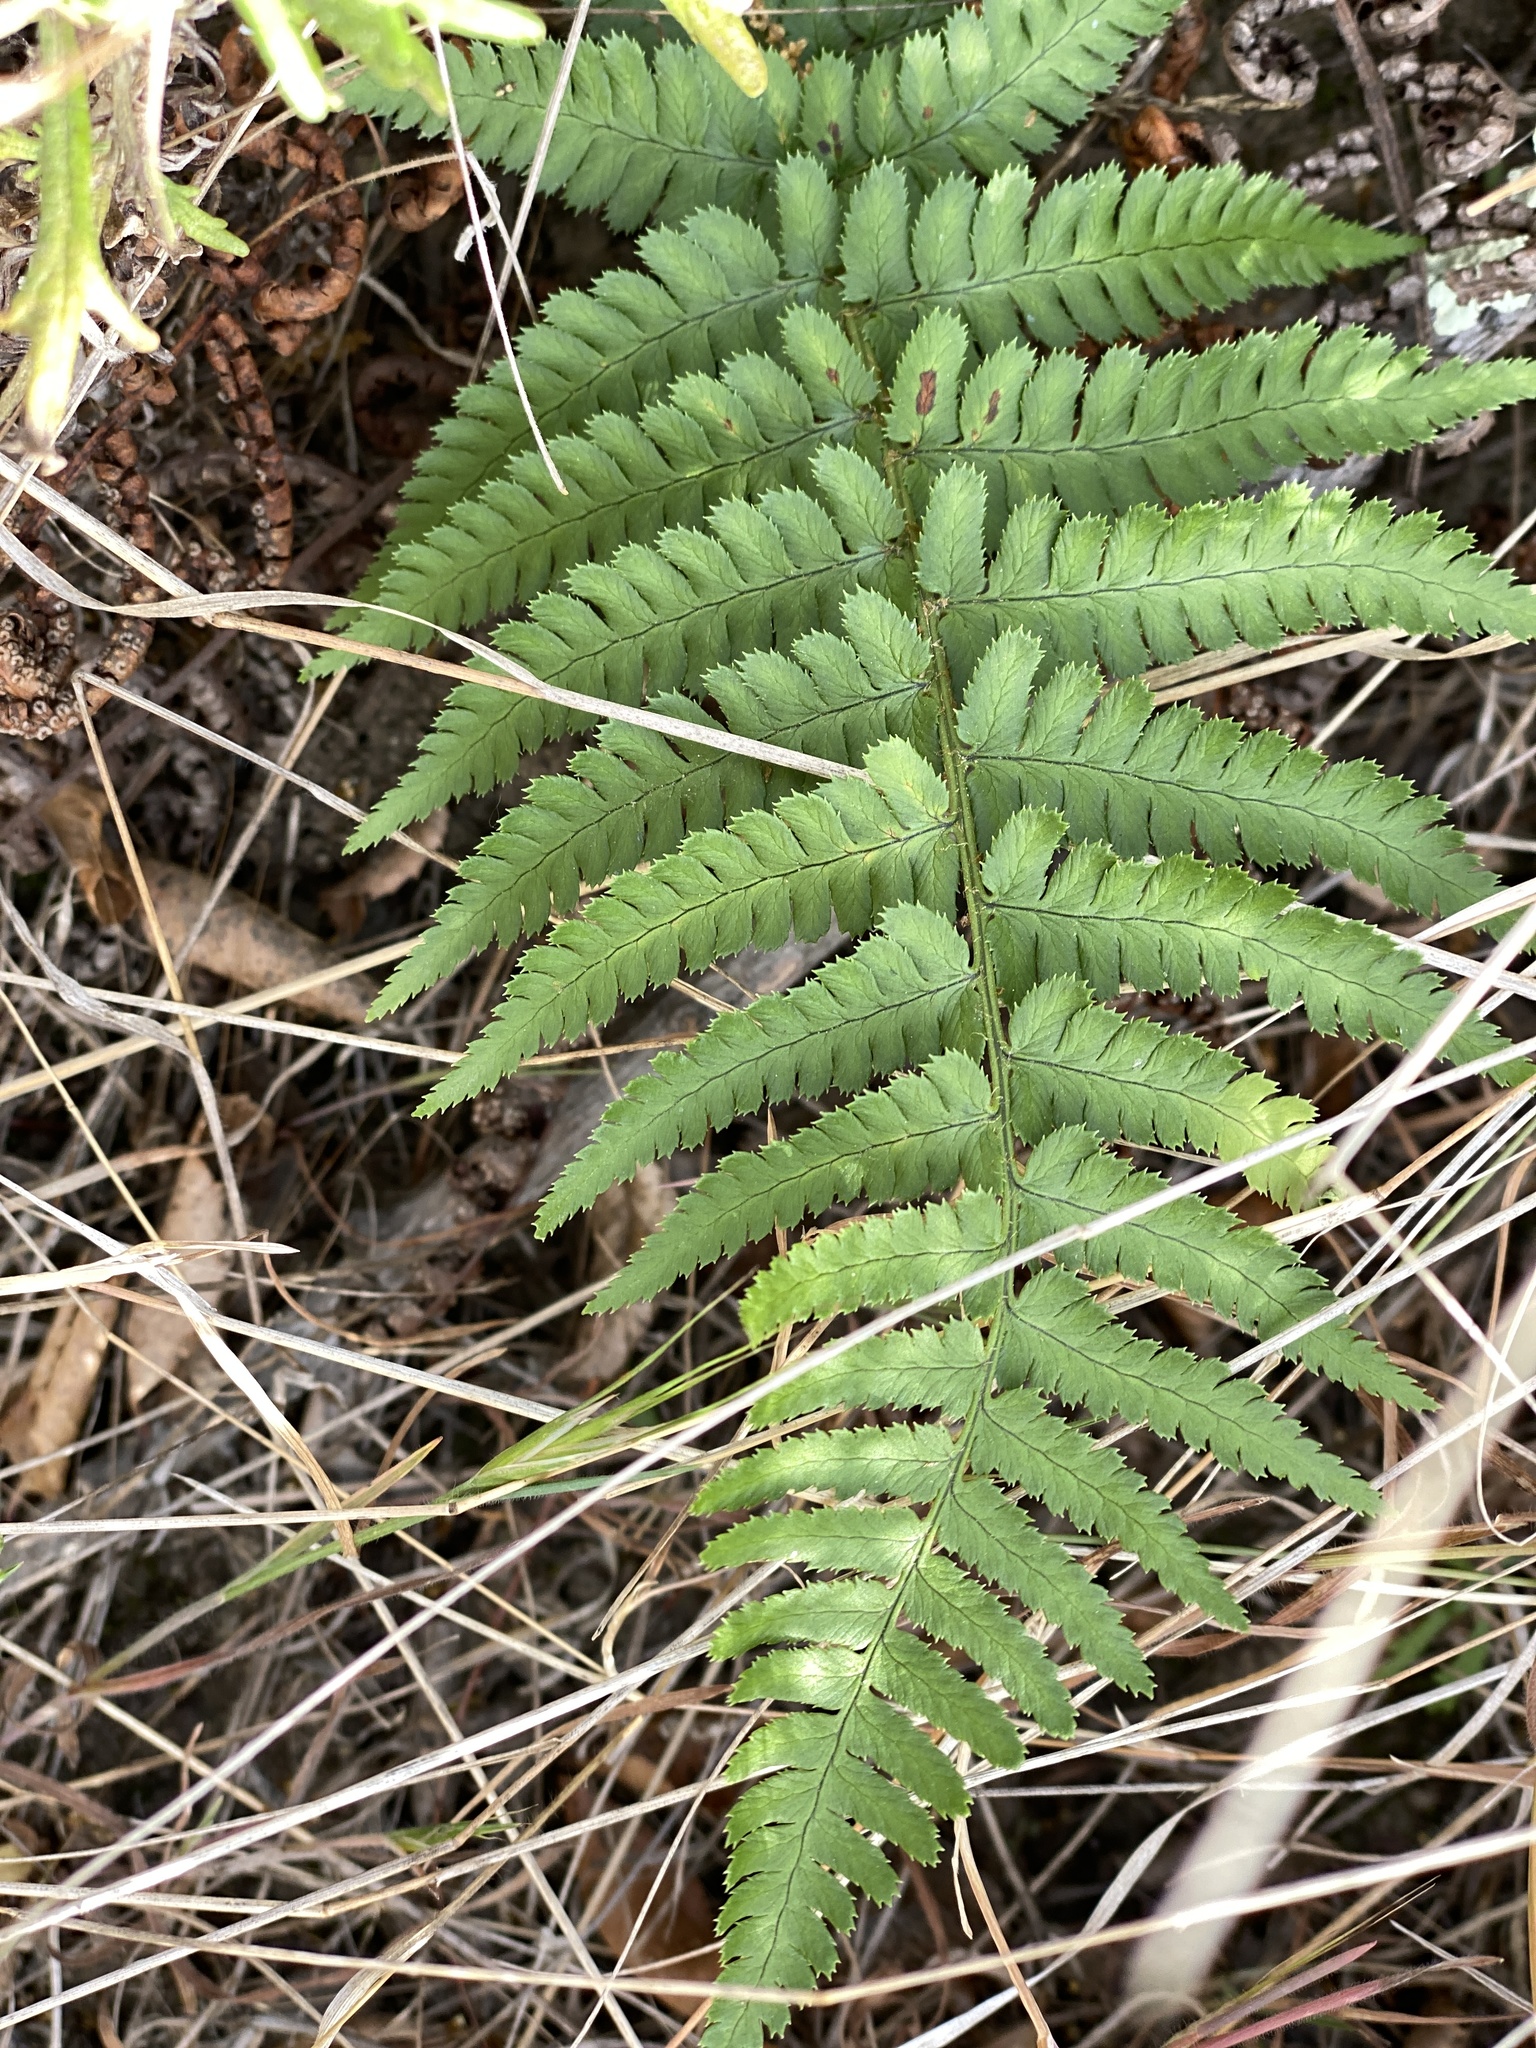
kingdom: Plantae
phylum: Tracheophyta
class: Polypodiopsida
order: Polypodiales
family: Dryopteridaceae
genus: Dryopteris
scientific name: Dryopteris arguta
